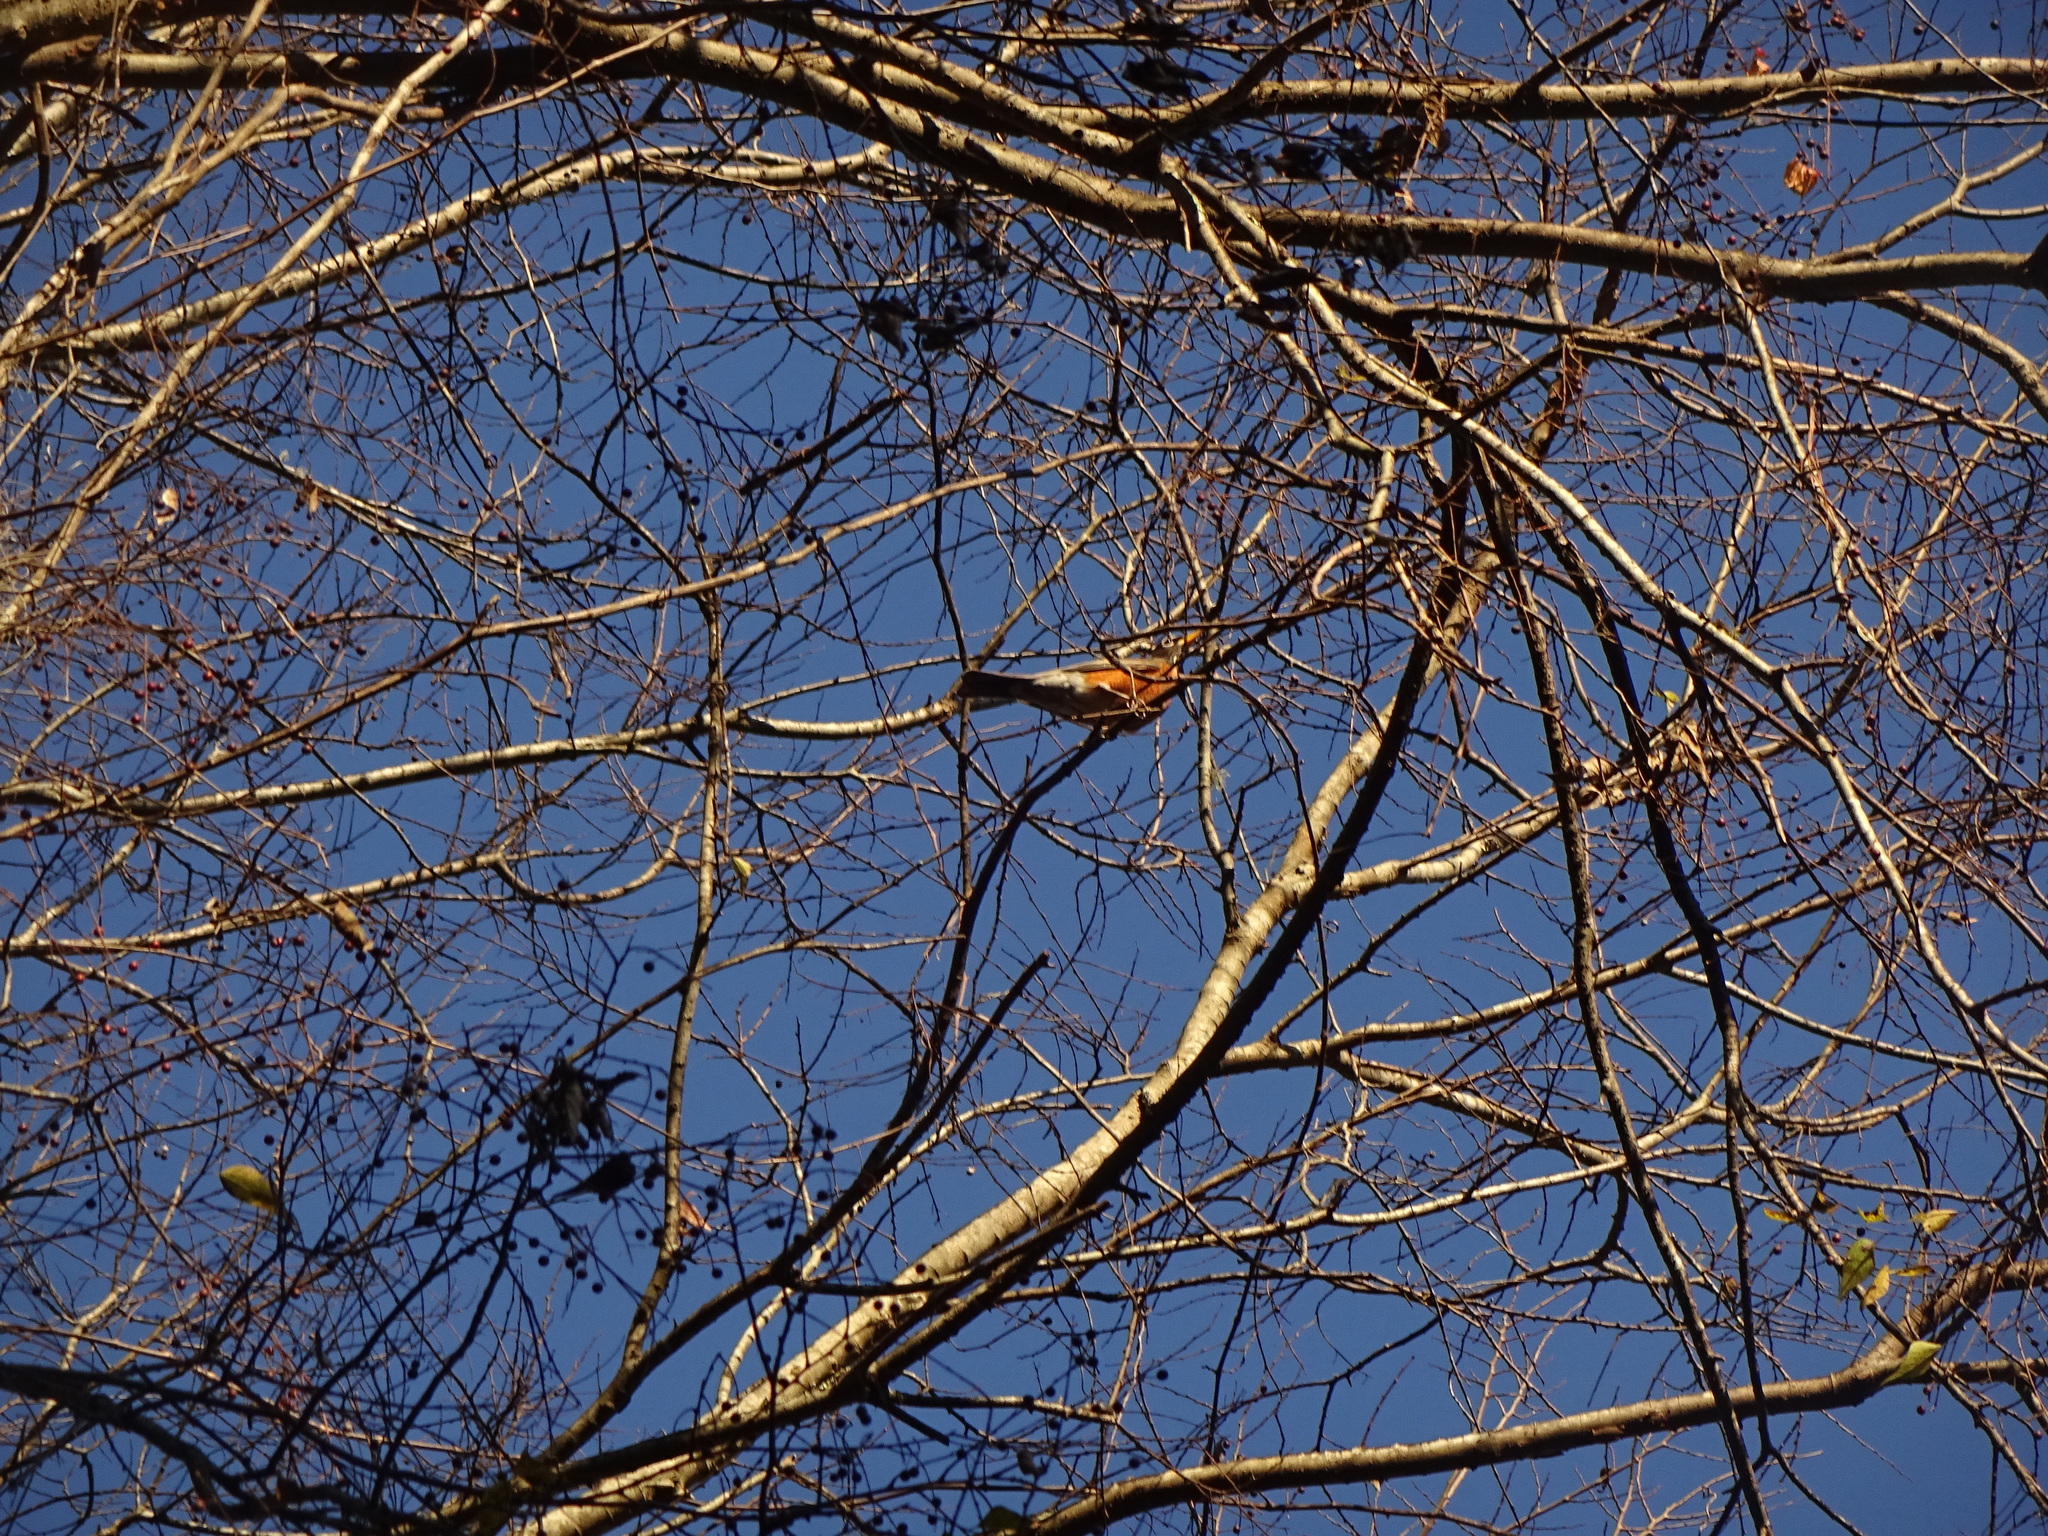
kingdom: Animalia
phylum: Chordata
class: Aves
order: Passeriformes
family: Turdidae
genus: Turdus
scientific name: Turdus migratorius
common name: American robin
